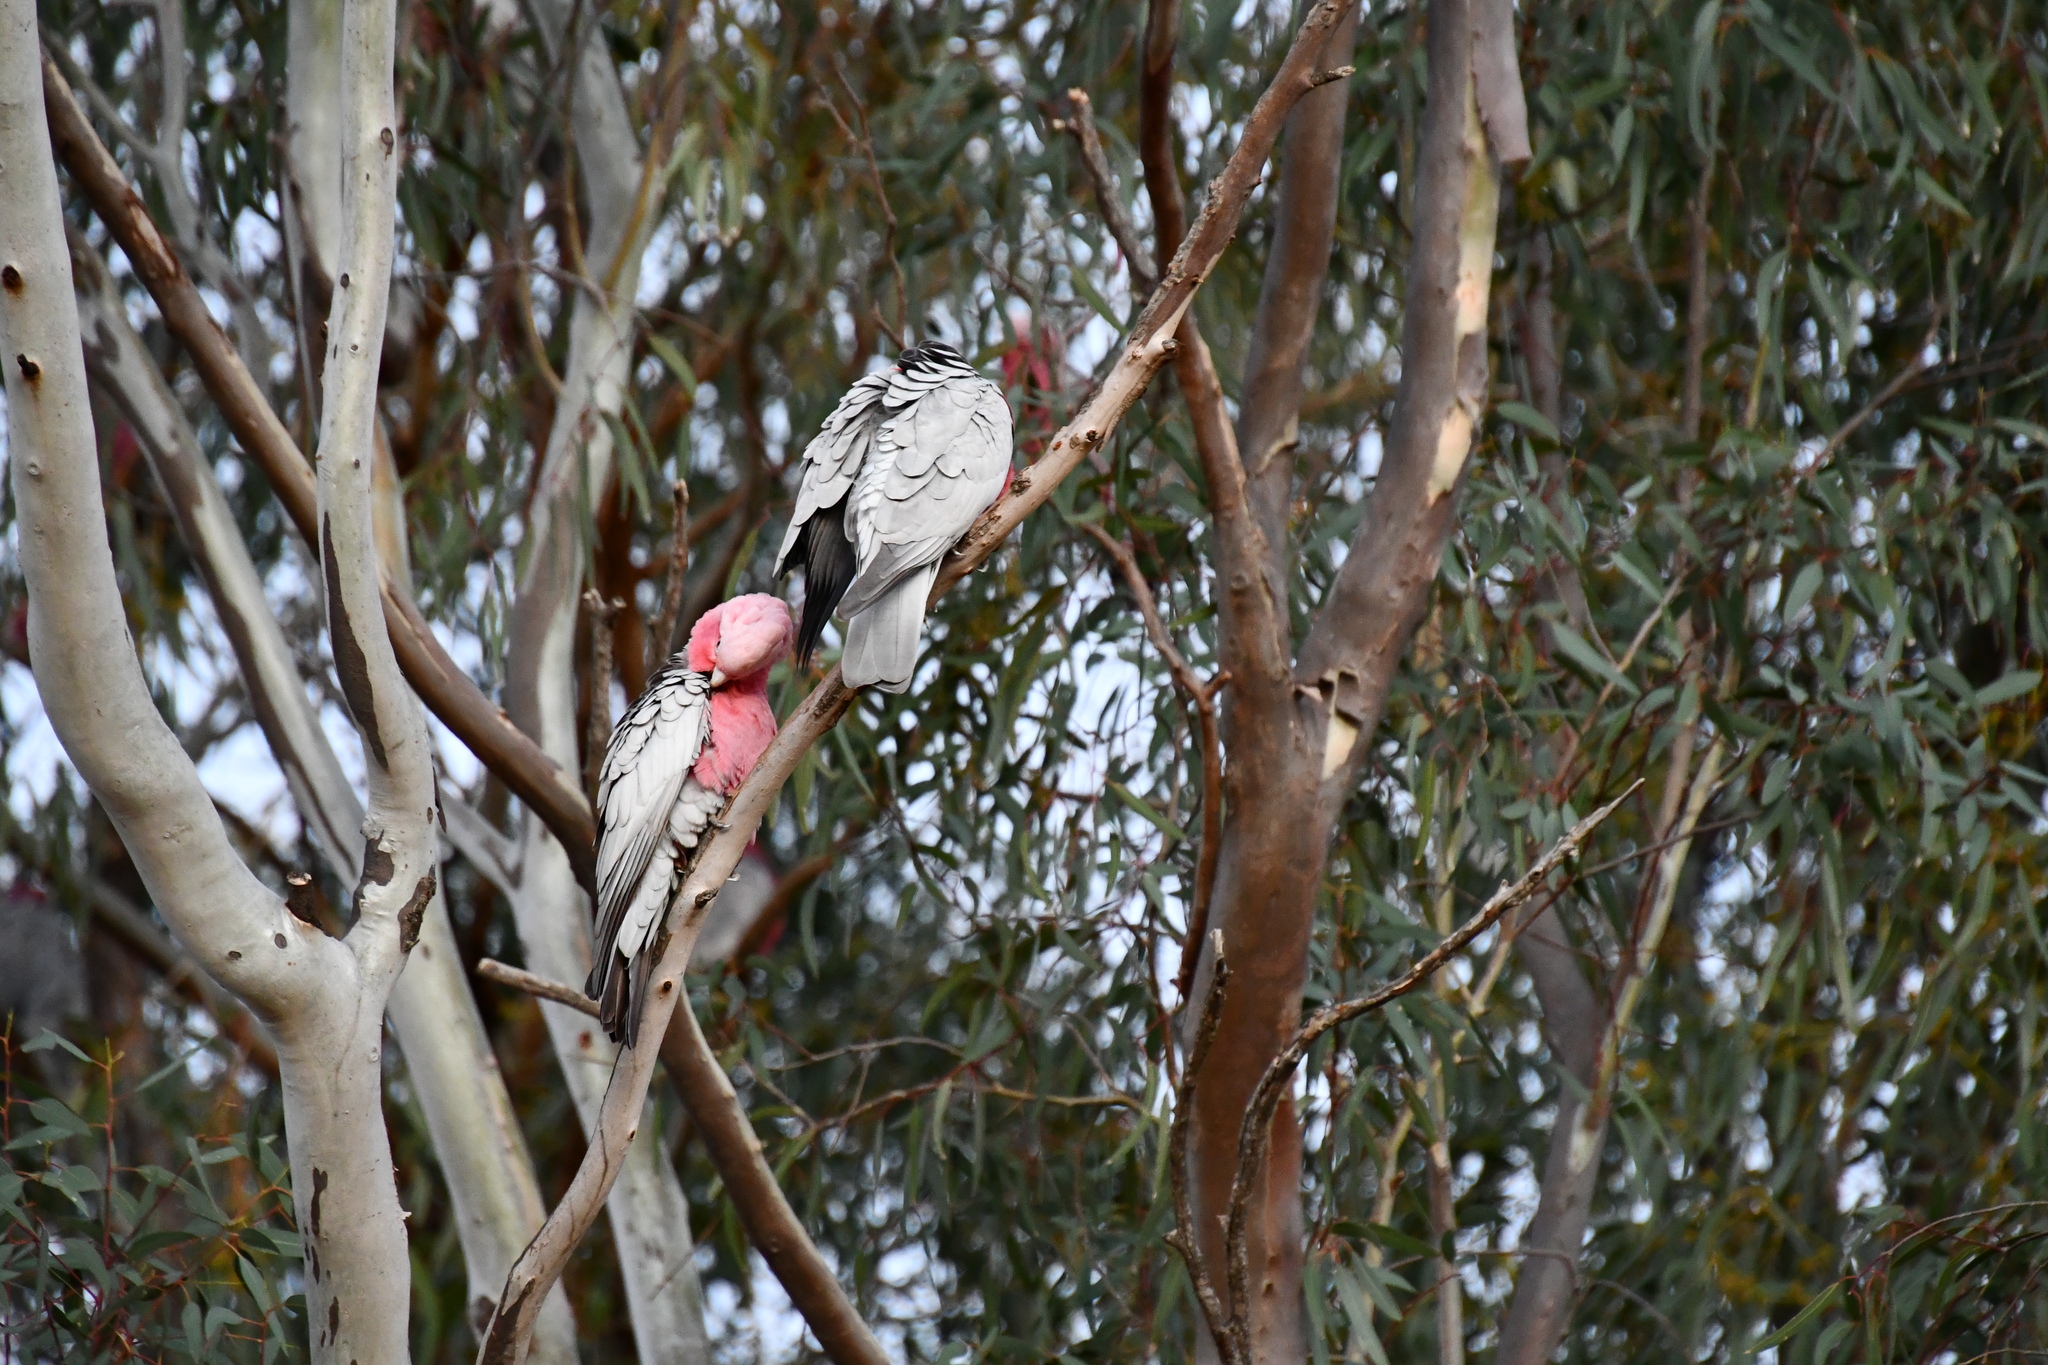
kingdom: Animalia
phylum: Chordata
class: Aves
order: Psittaciformes
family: Psittacidae
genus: Eolophus
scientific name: Eolophus roseicapilla
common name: Galah
